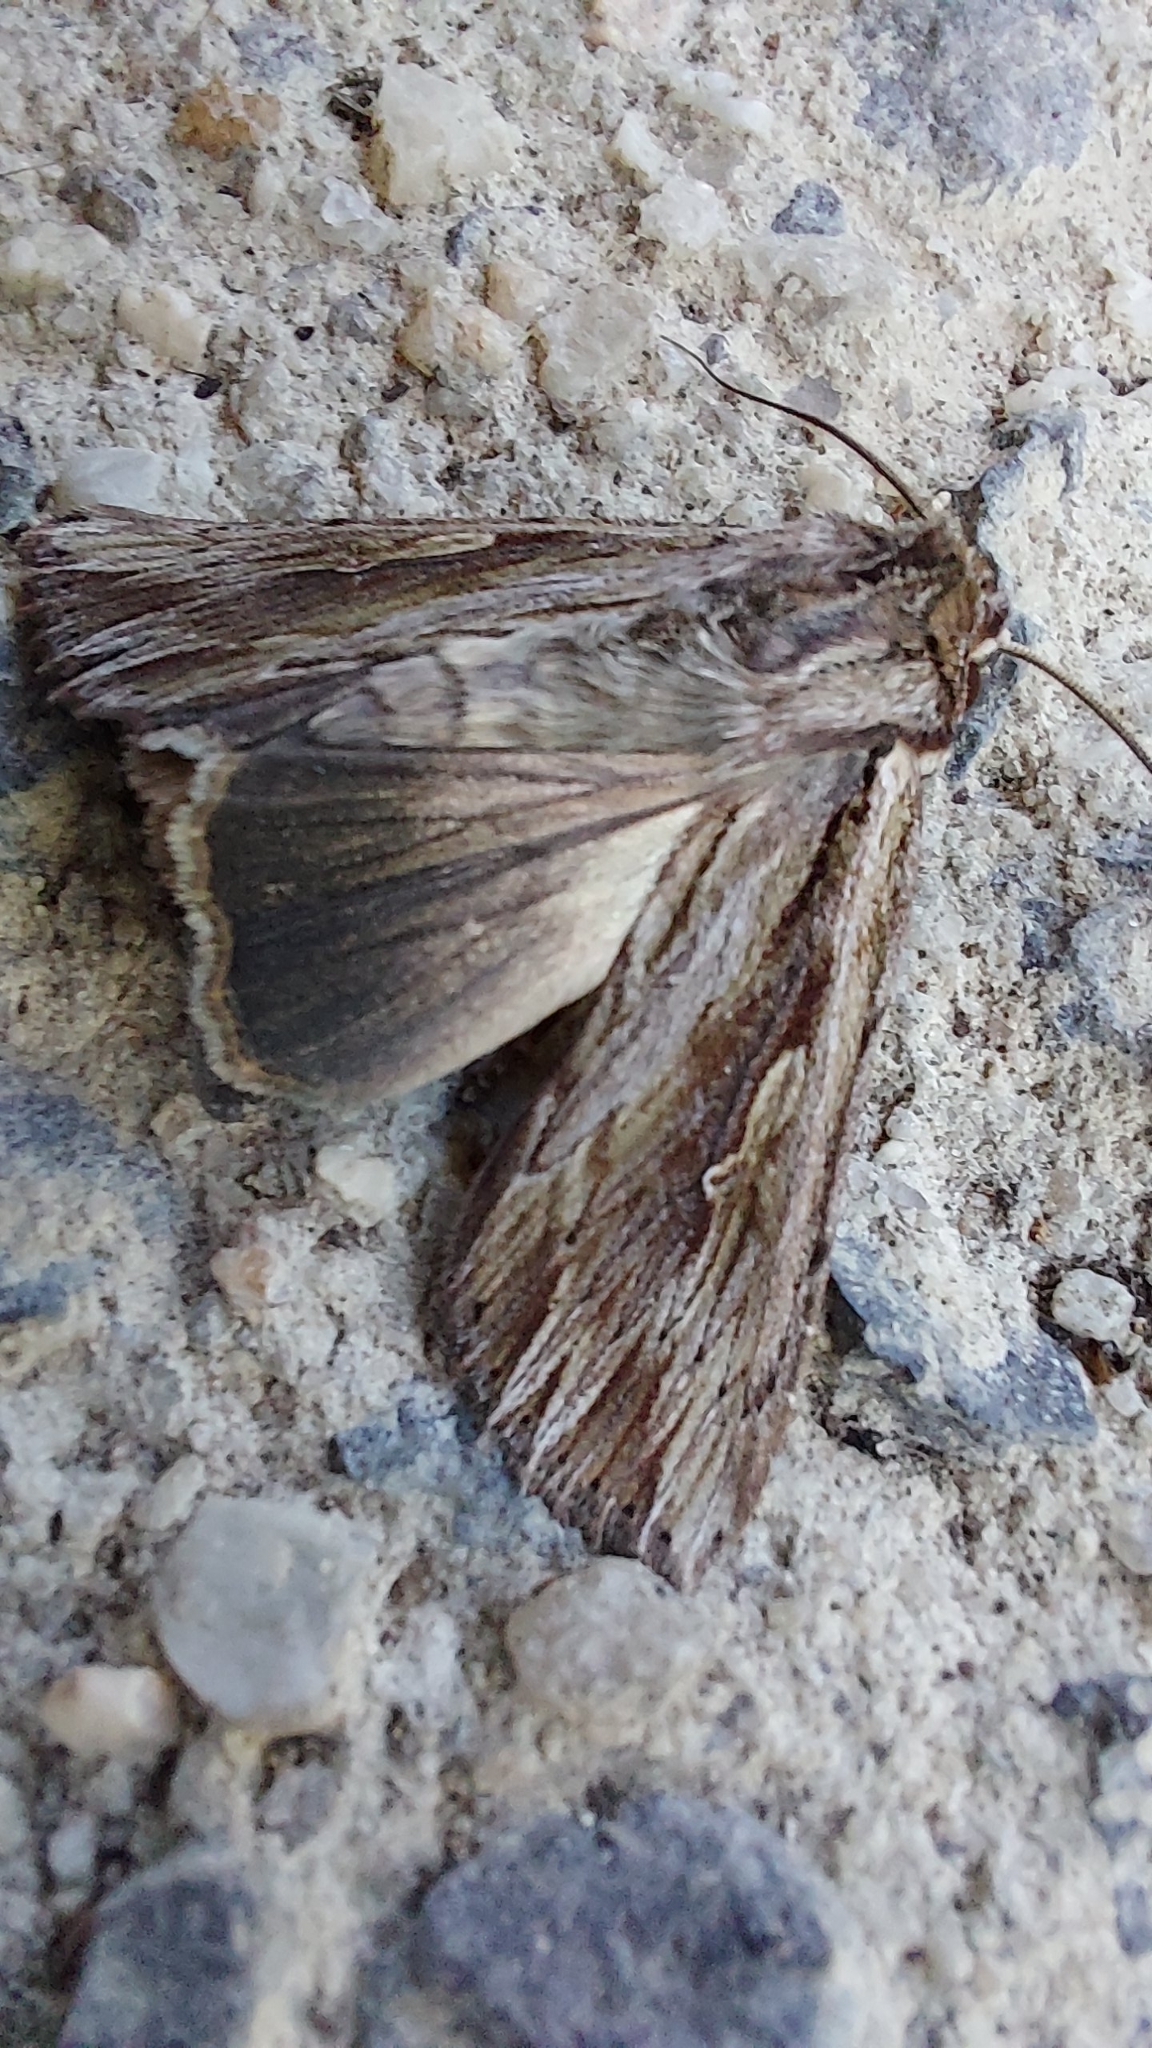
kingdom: Animalia
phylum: Arthropoda
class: Insecta
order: Lepidoptera
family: Noctuidae
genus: Persectania
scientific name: Persectania ewingii
